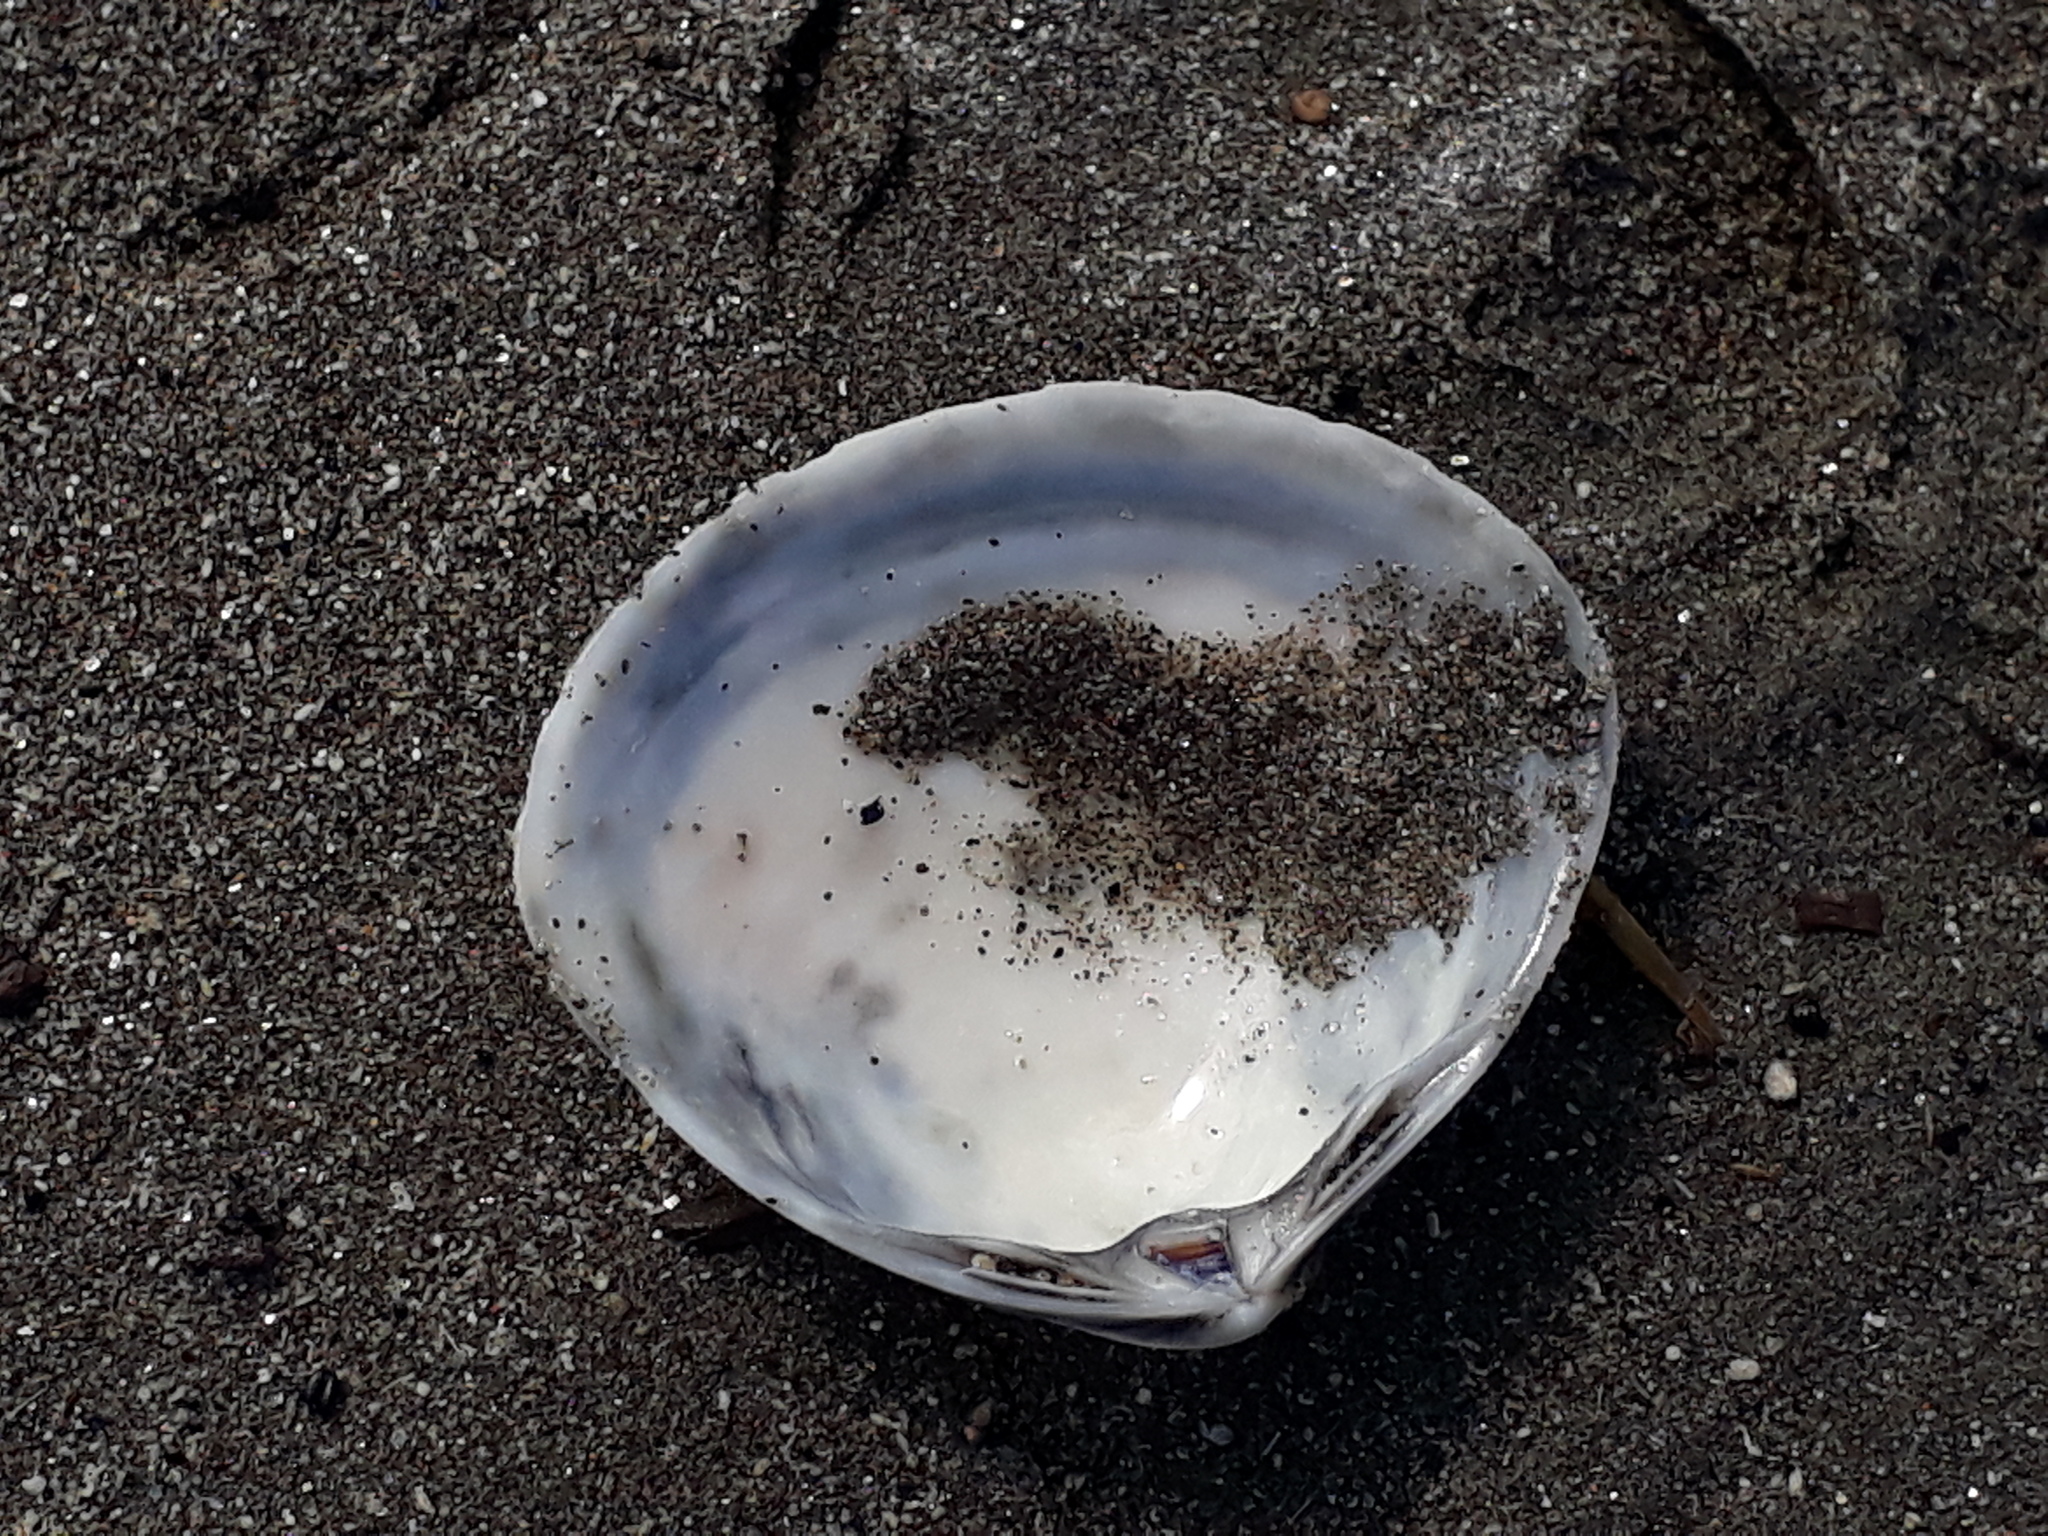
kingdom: Animalia
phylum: Mollusca
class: Bivalvia
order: Venerida
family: Mactridae
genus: Spisula
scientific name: Spisula discors
